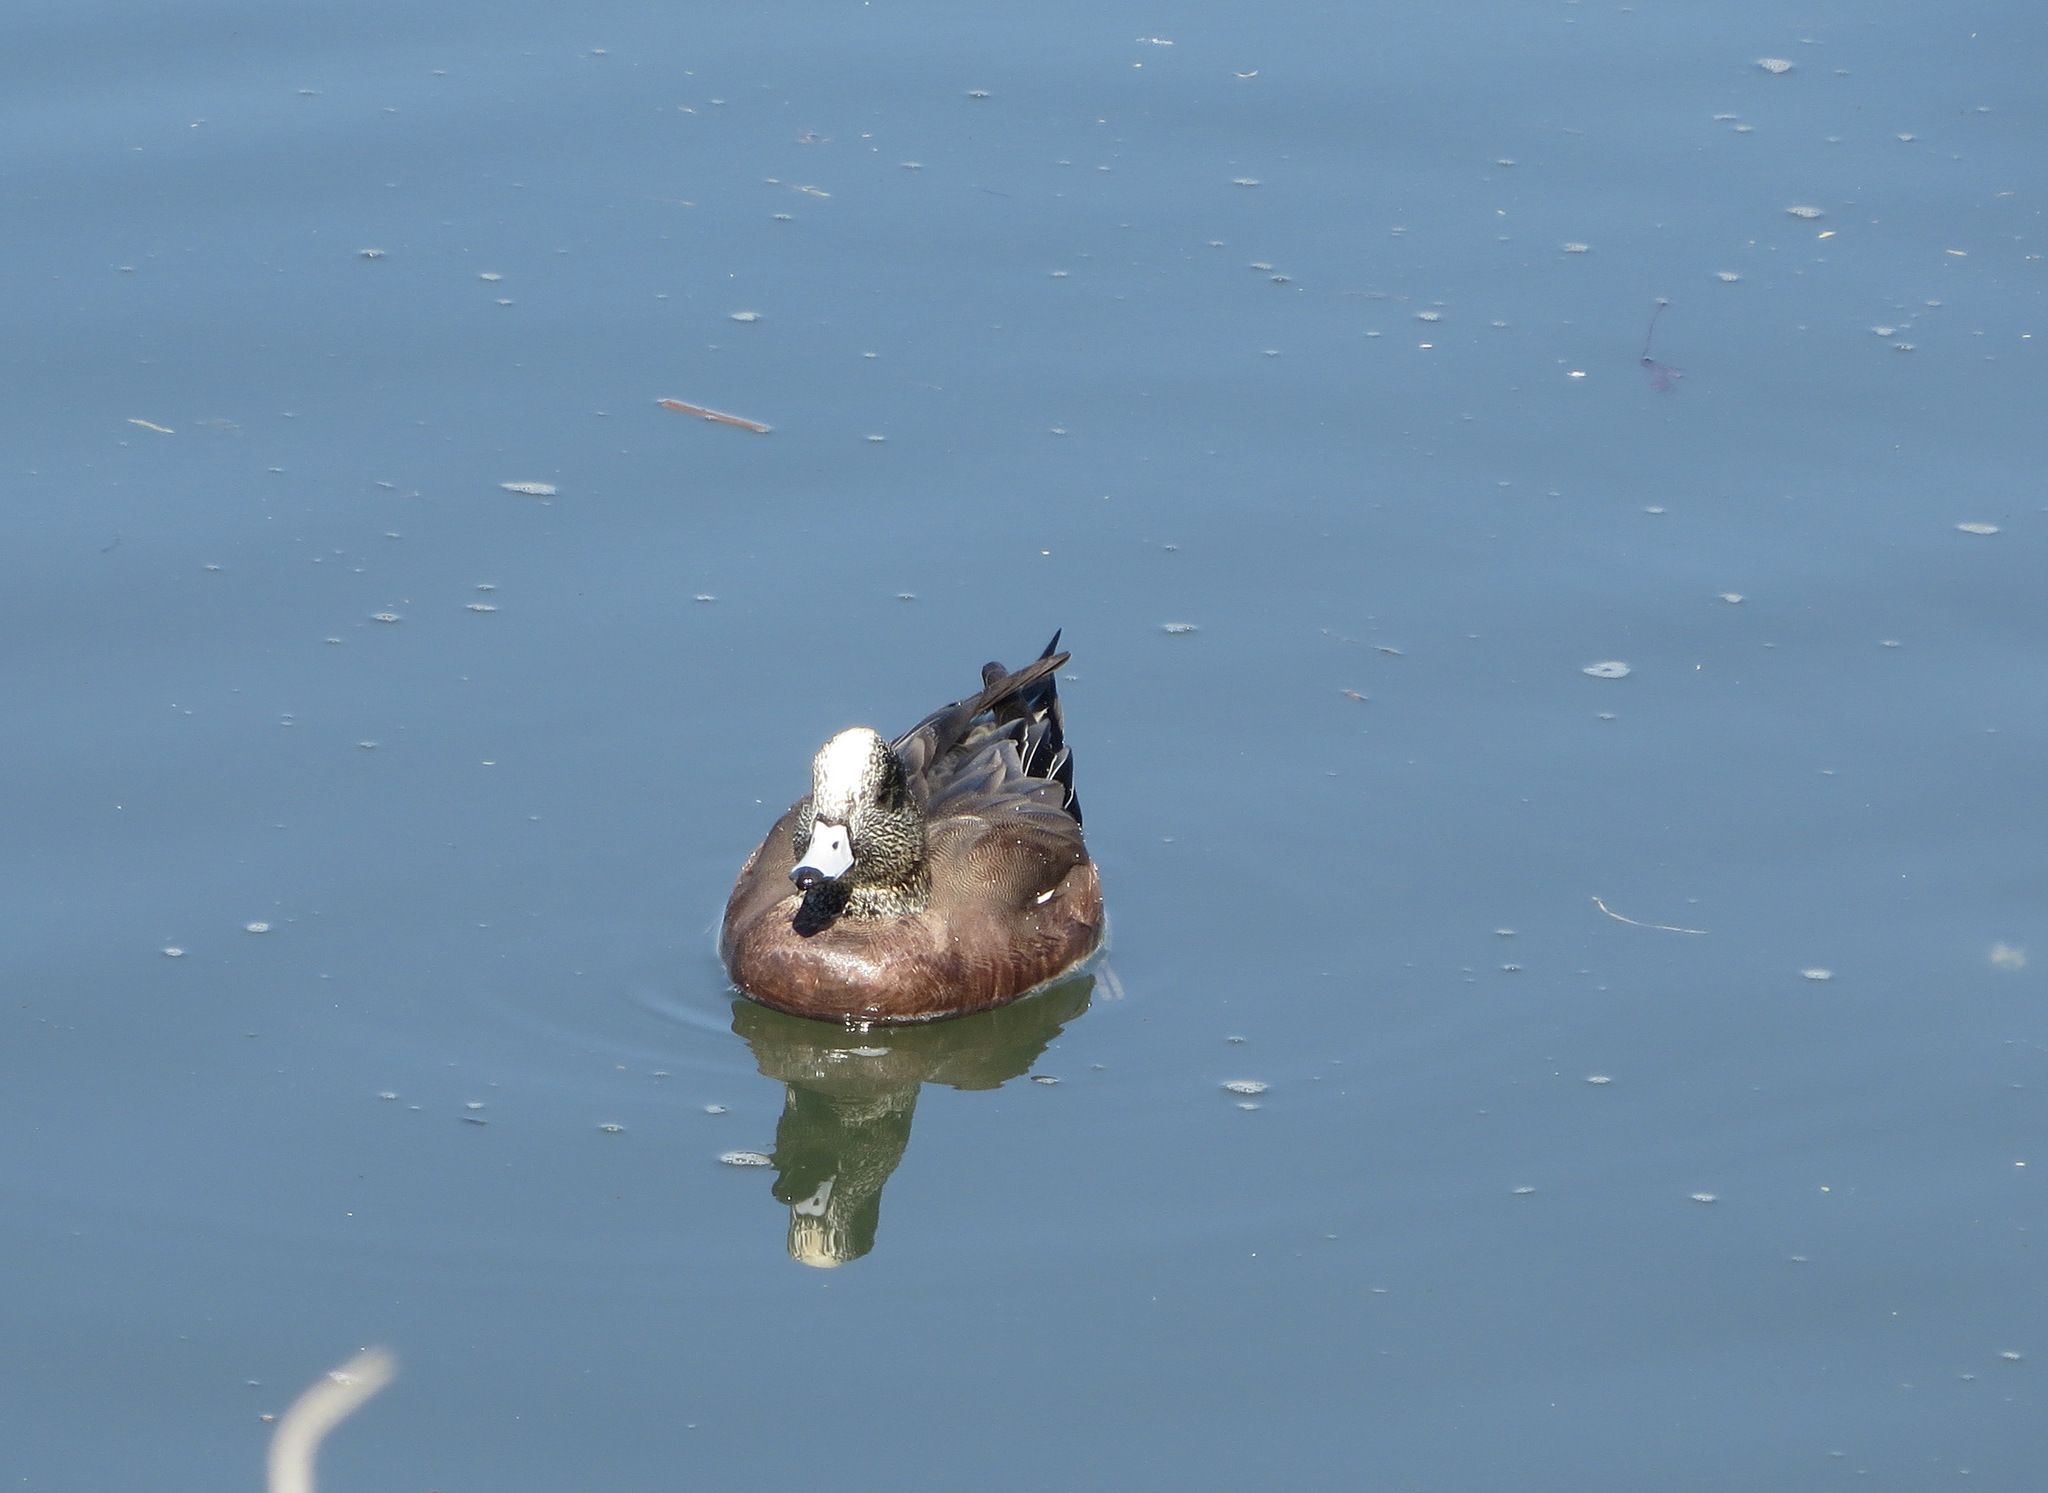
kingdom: Animalia
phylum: Chordata
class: Aves
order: Anseriformes
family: Anatidae
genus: Mareca
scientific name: Mareca americana
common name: American wigeon
